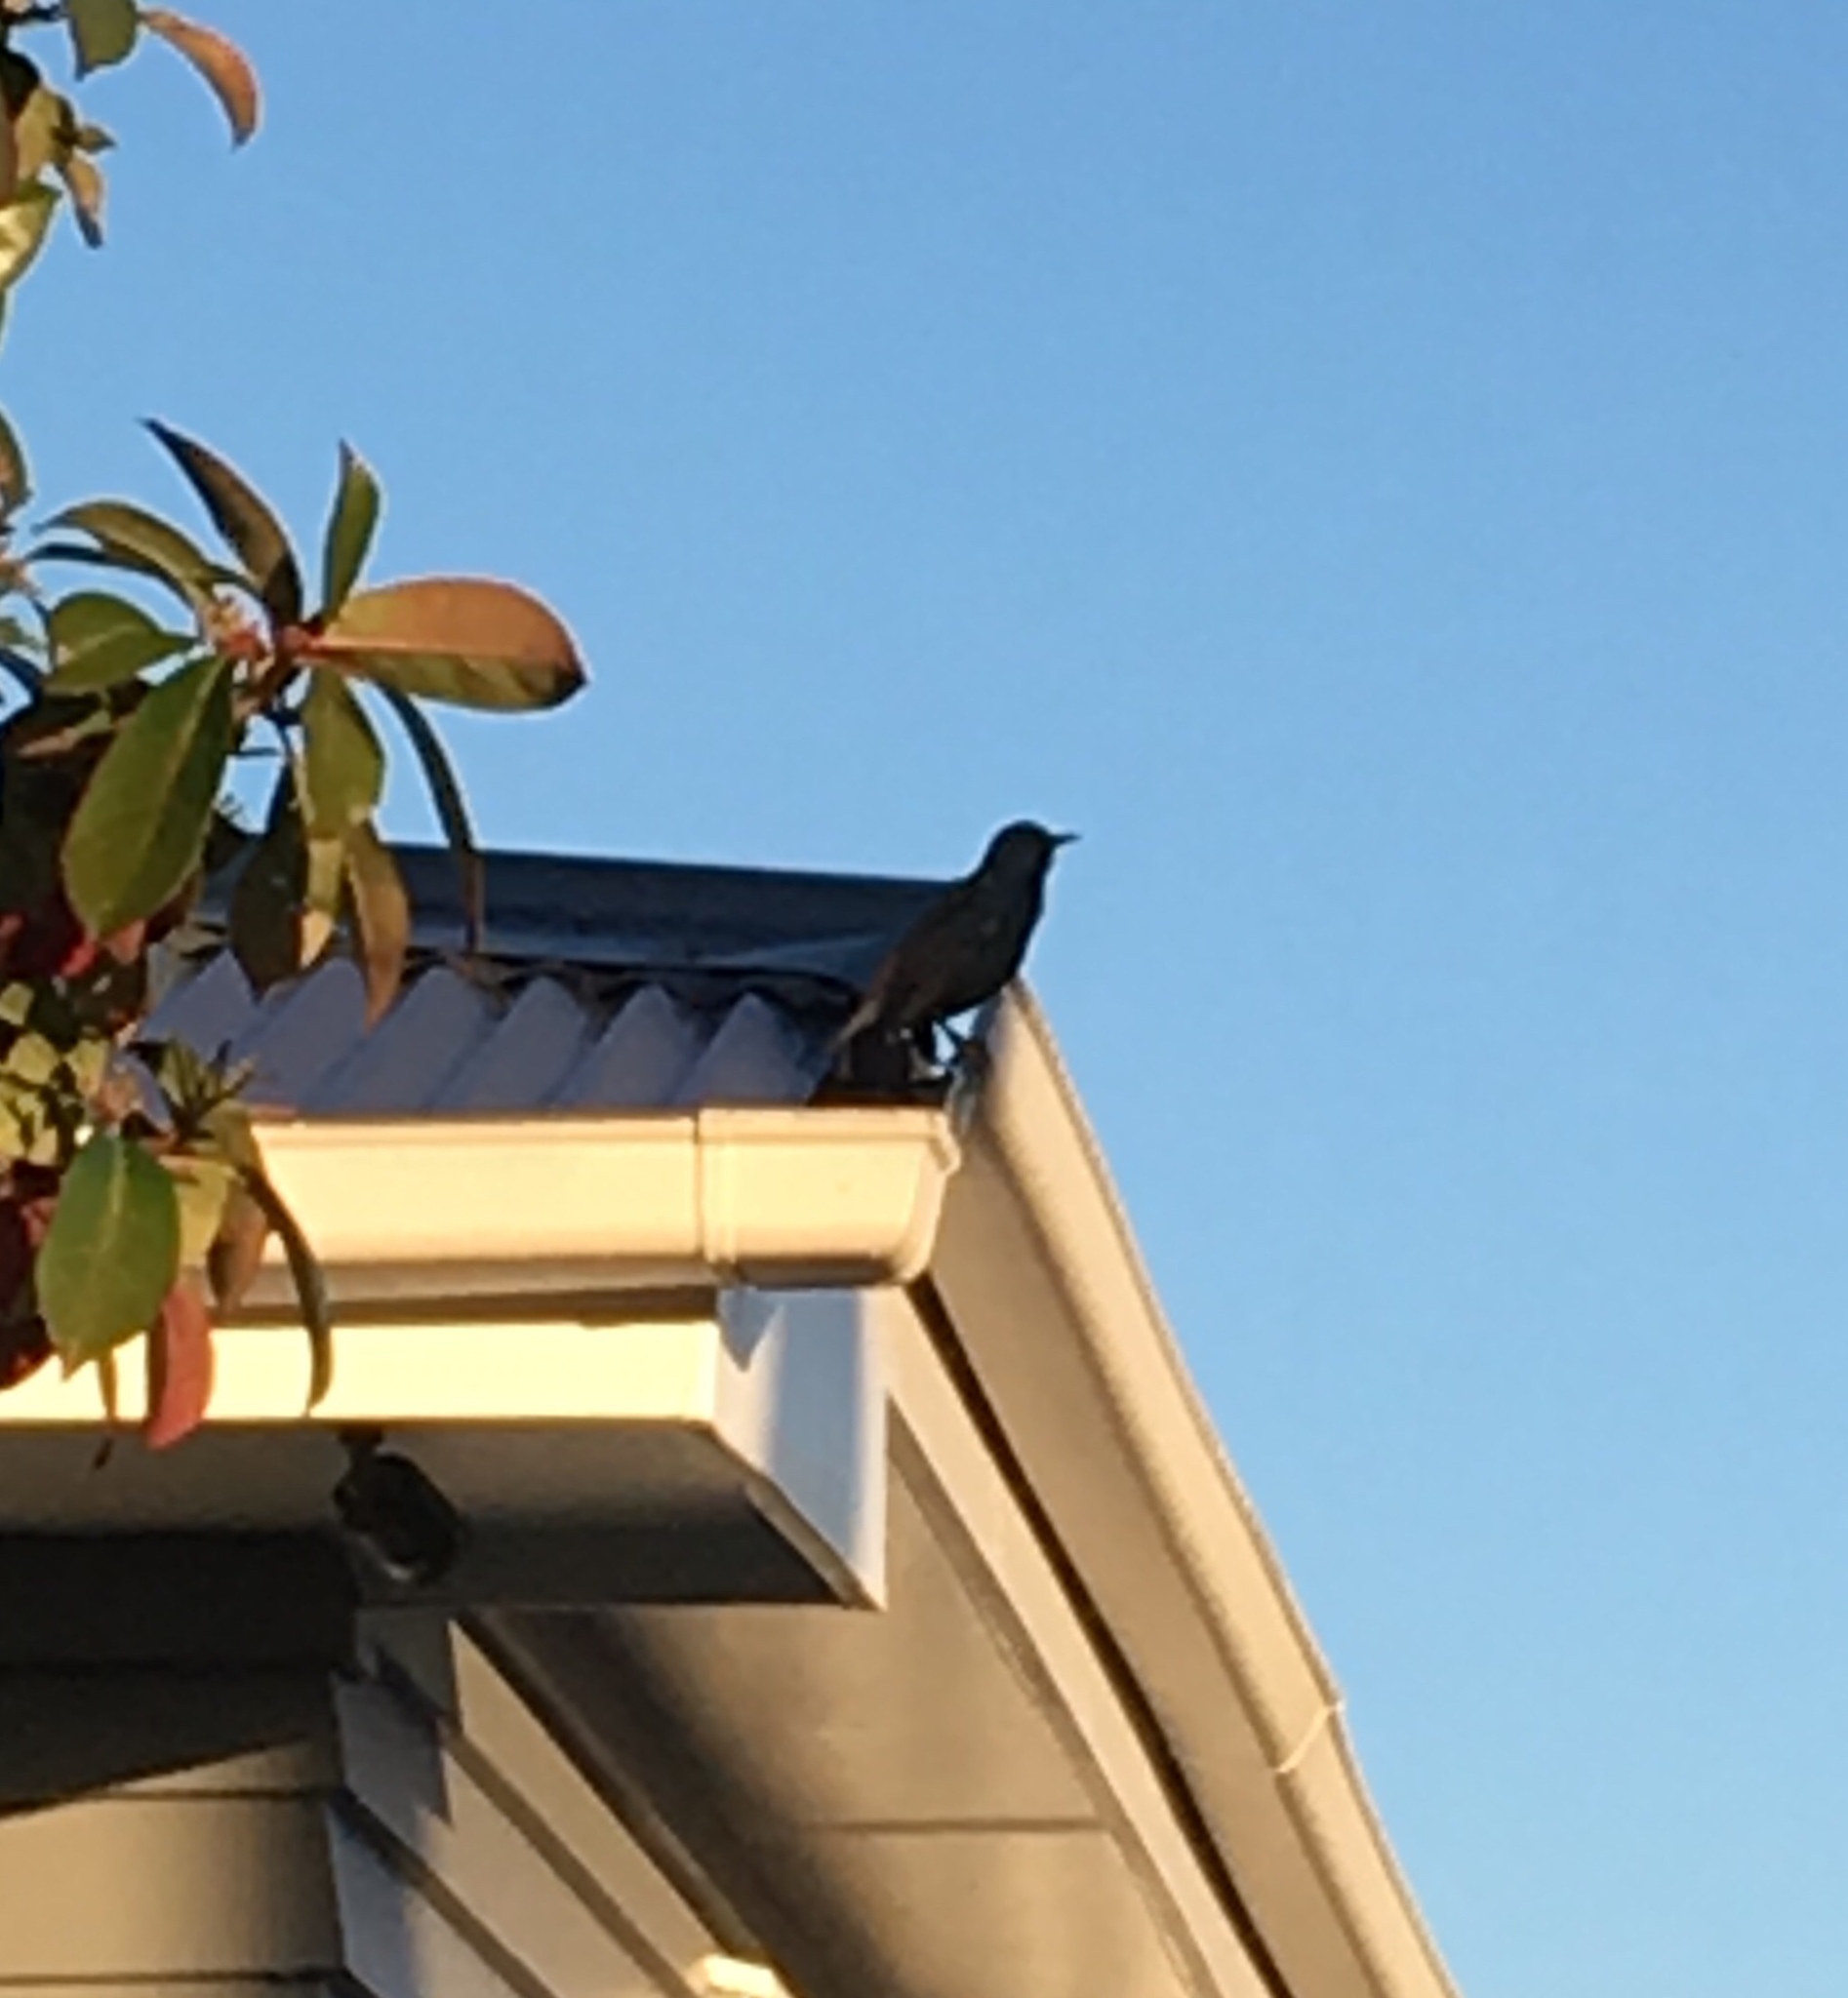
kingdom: Animalia
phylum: Chordata
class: Aves
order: Passeriformes
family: Sturnidae
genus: Sturnus
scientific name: Sturnus vulgaris
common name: Common starling
